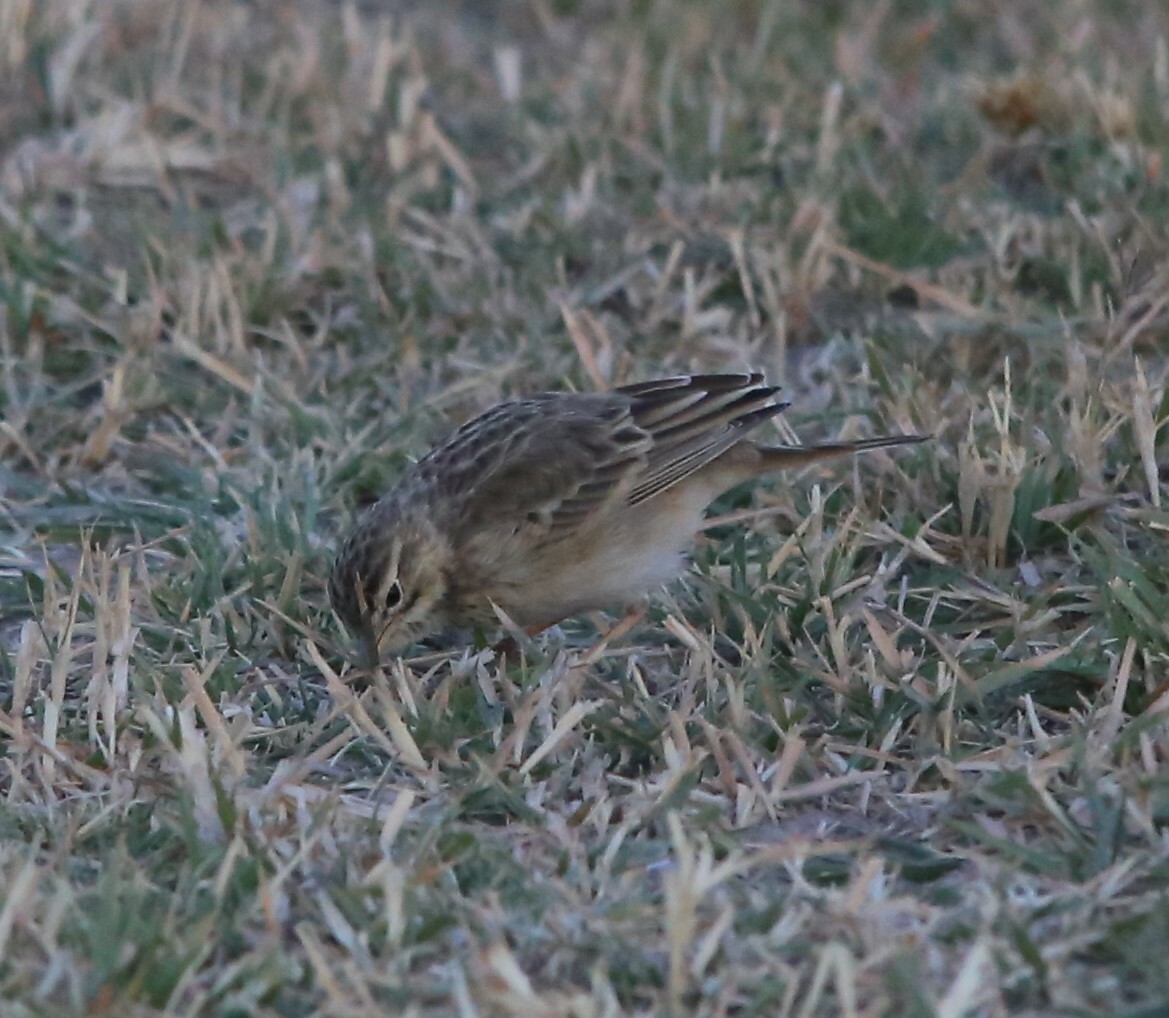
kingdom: Animalia
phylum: Chordata
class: Aves
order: Passeriformes
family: Motacillidae
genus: Anthus
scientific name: Anthus cinnamomeus
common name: African pipit
